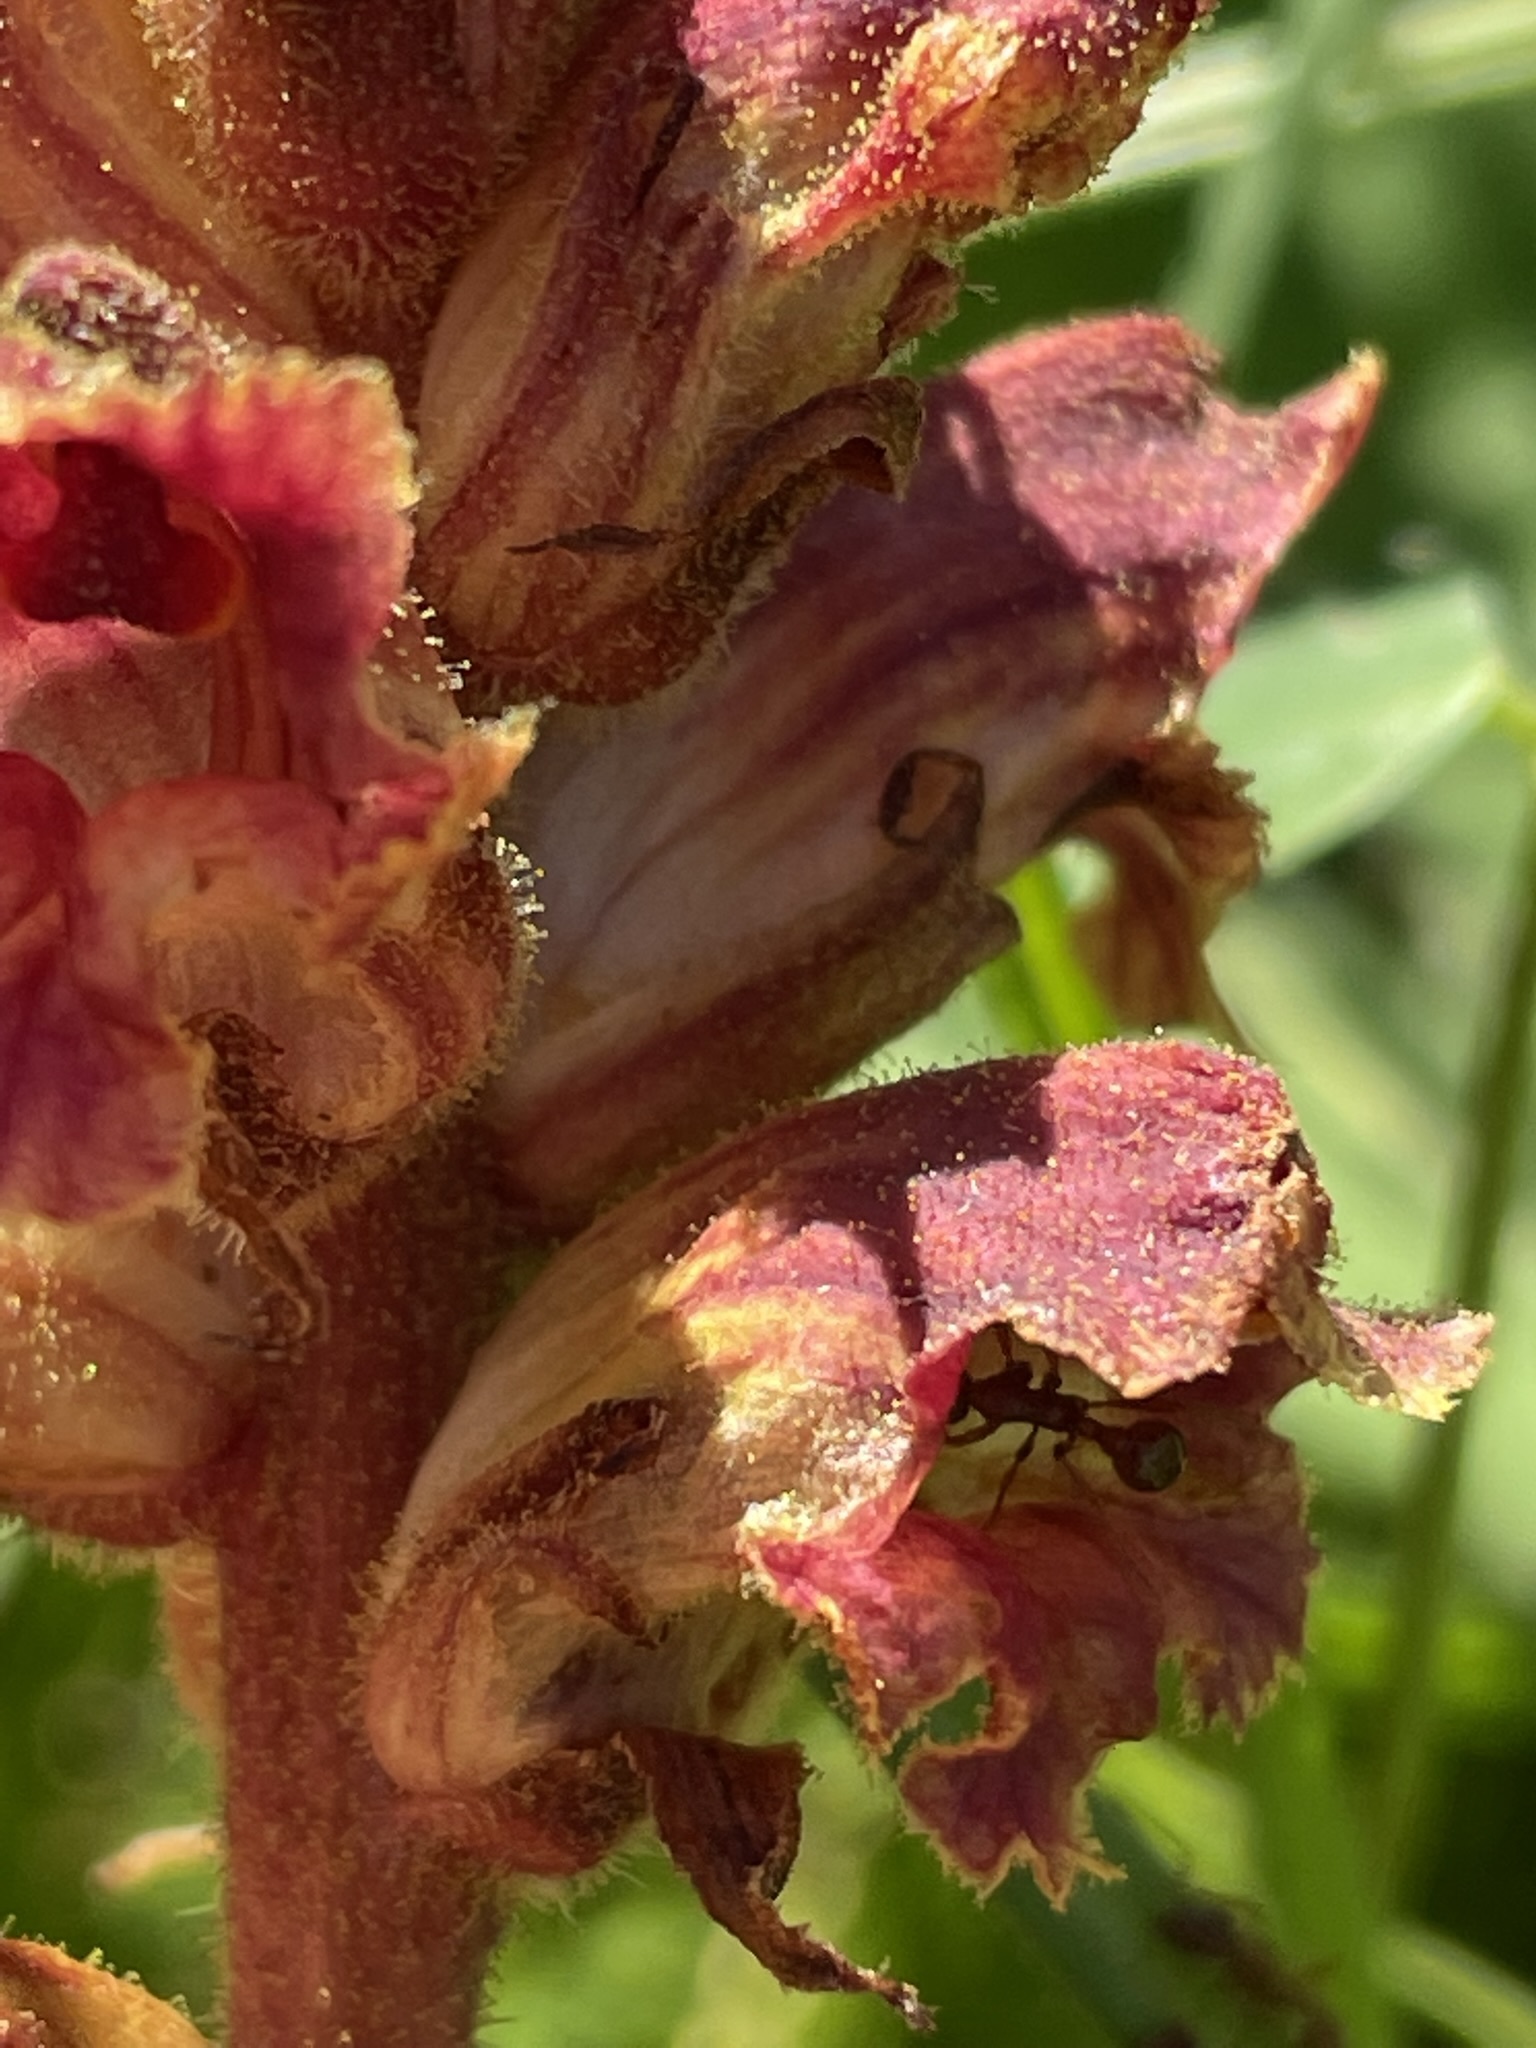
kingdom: Plantae
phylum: Tracheophyta
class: Magnoliopsida
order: Lamiales
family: Orobanchaceae
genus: Orobanche
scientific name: Orobanche gracilis
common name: Slender broomrape
